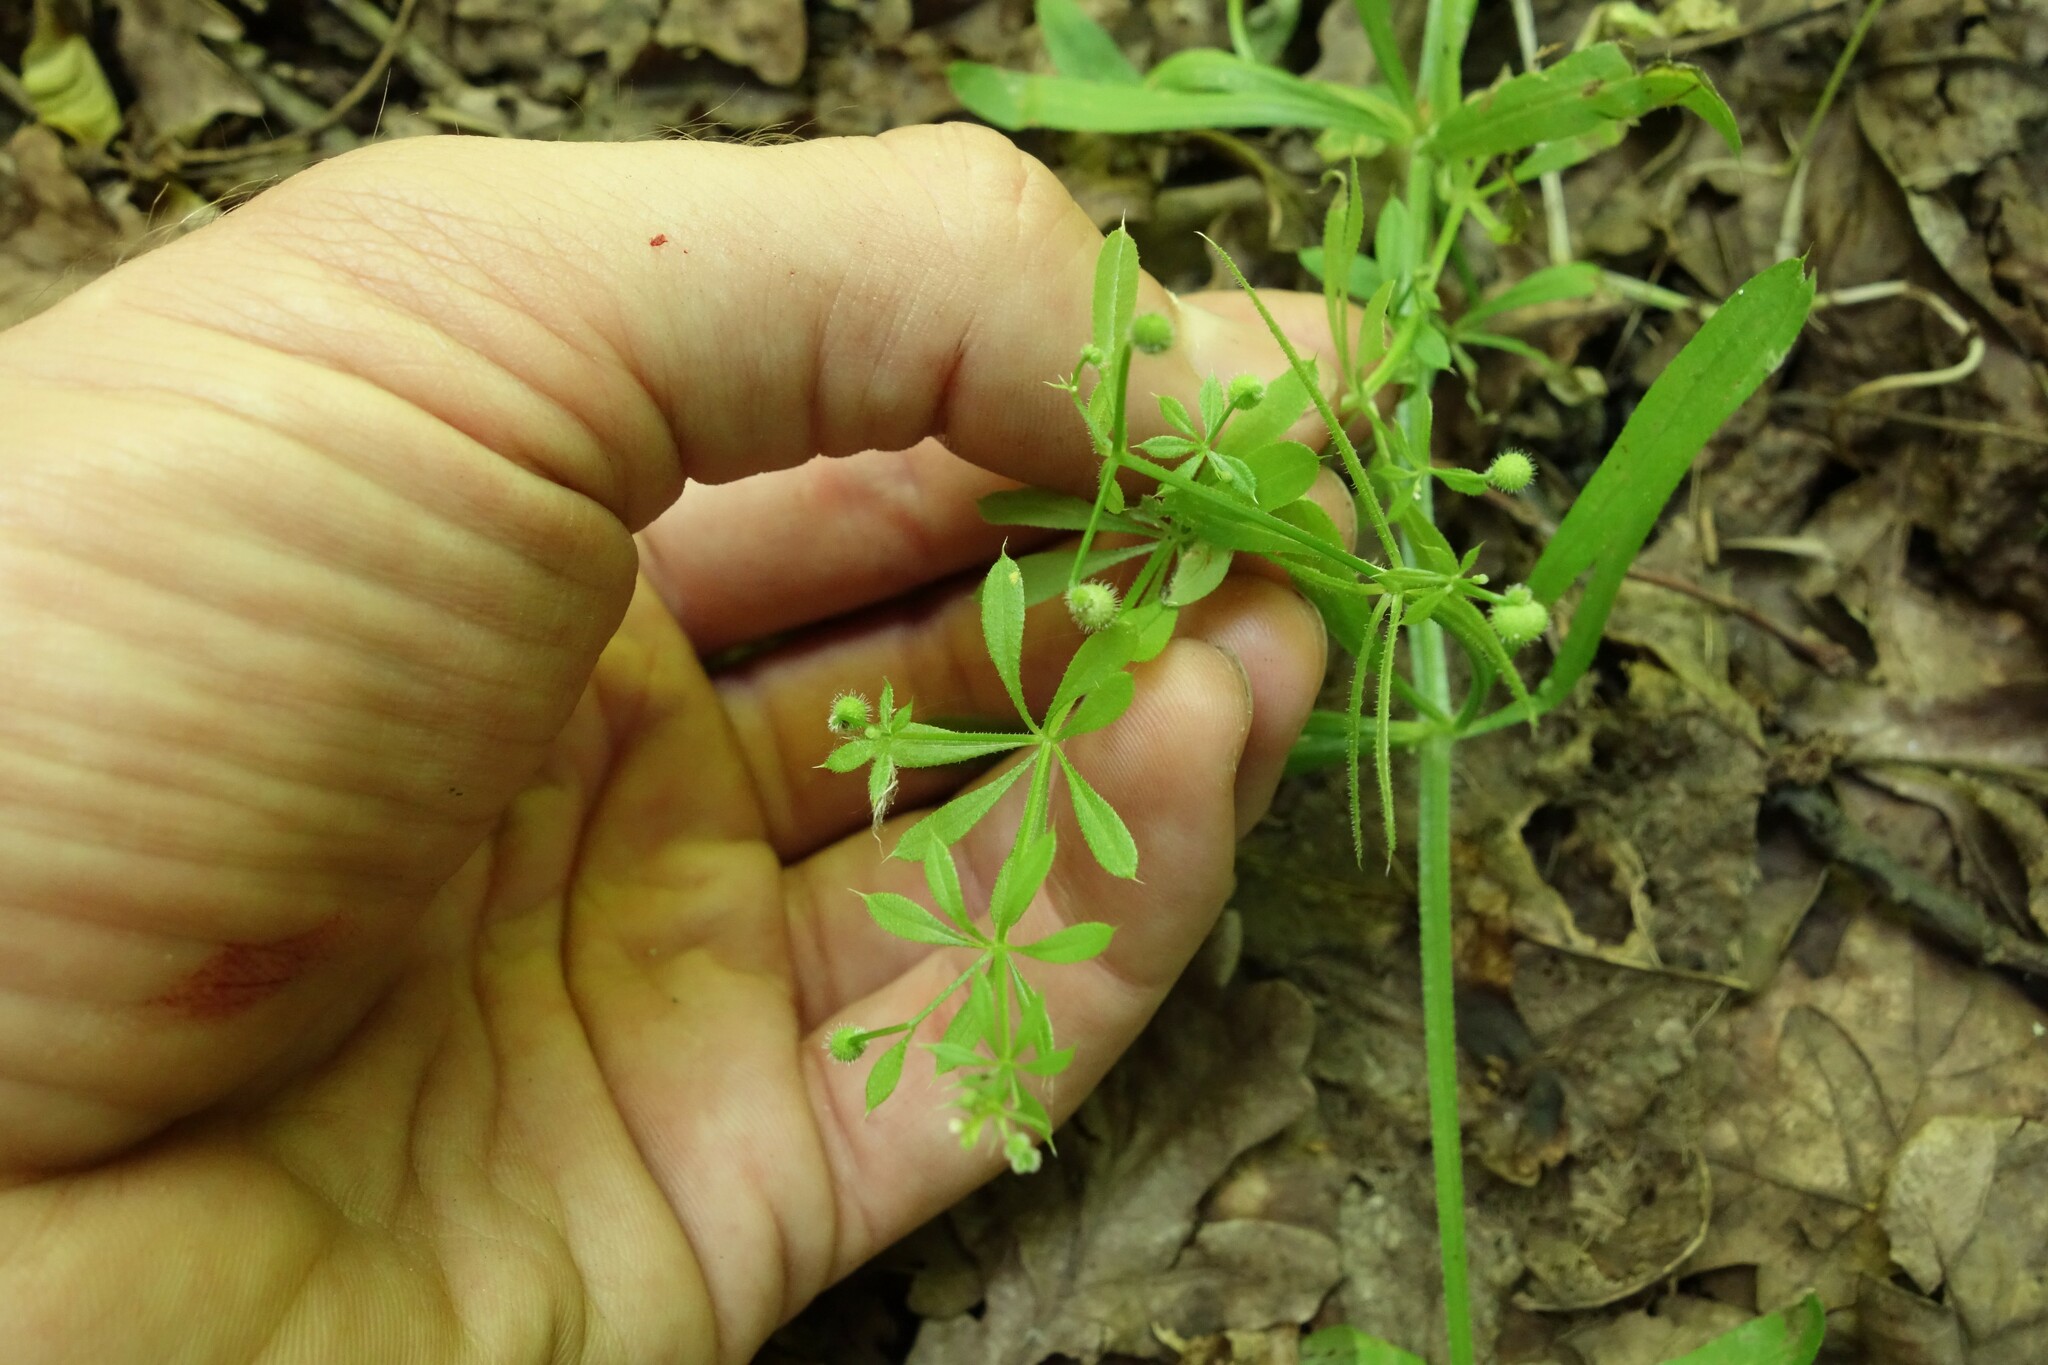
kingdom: Plantae
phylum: Tracheophyta
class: Magnoliopsida
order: Gentianales
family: Rubiaceae
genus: Galium
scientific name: Galium aparine
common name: Cleavers
